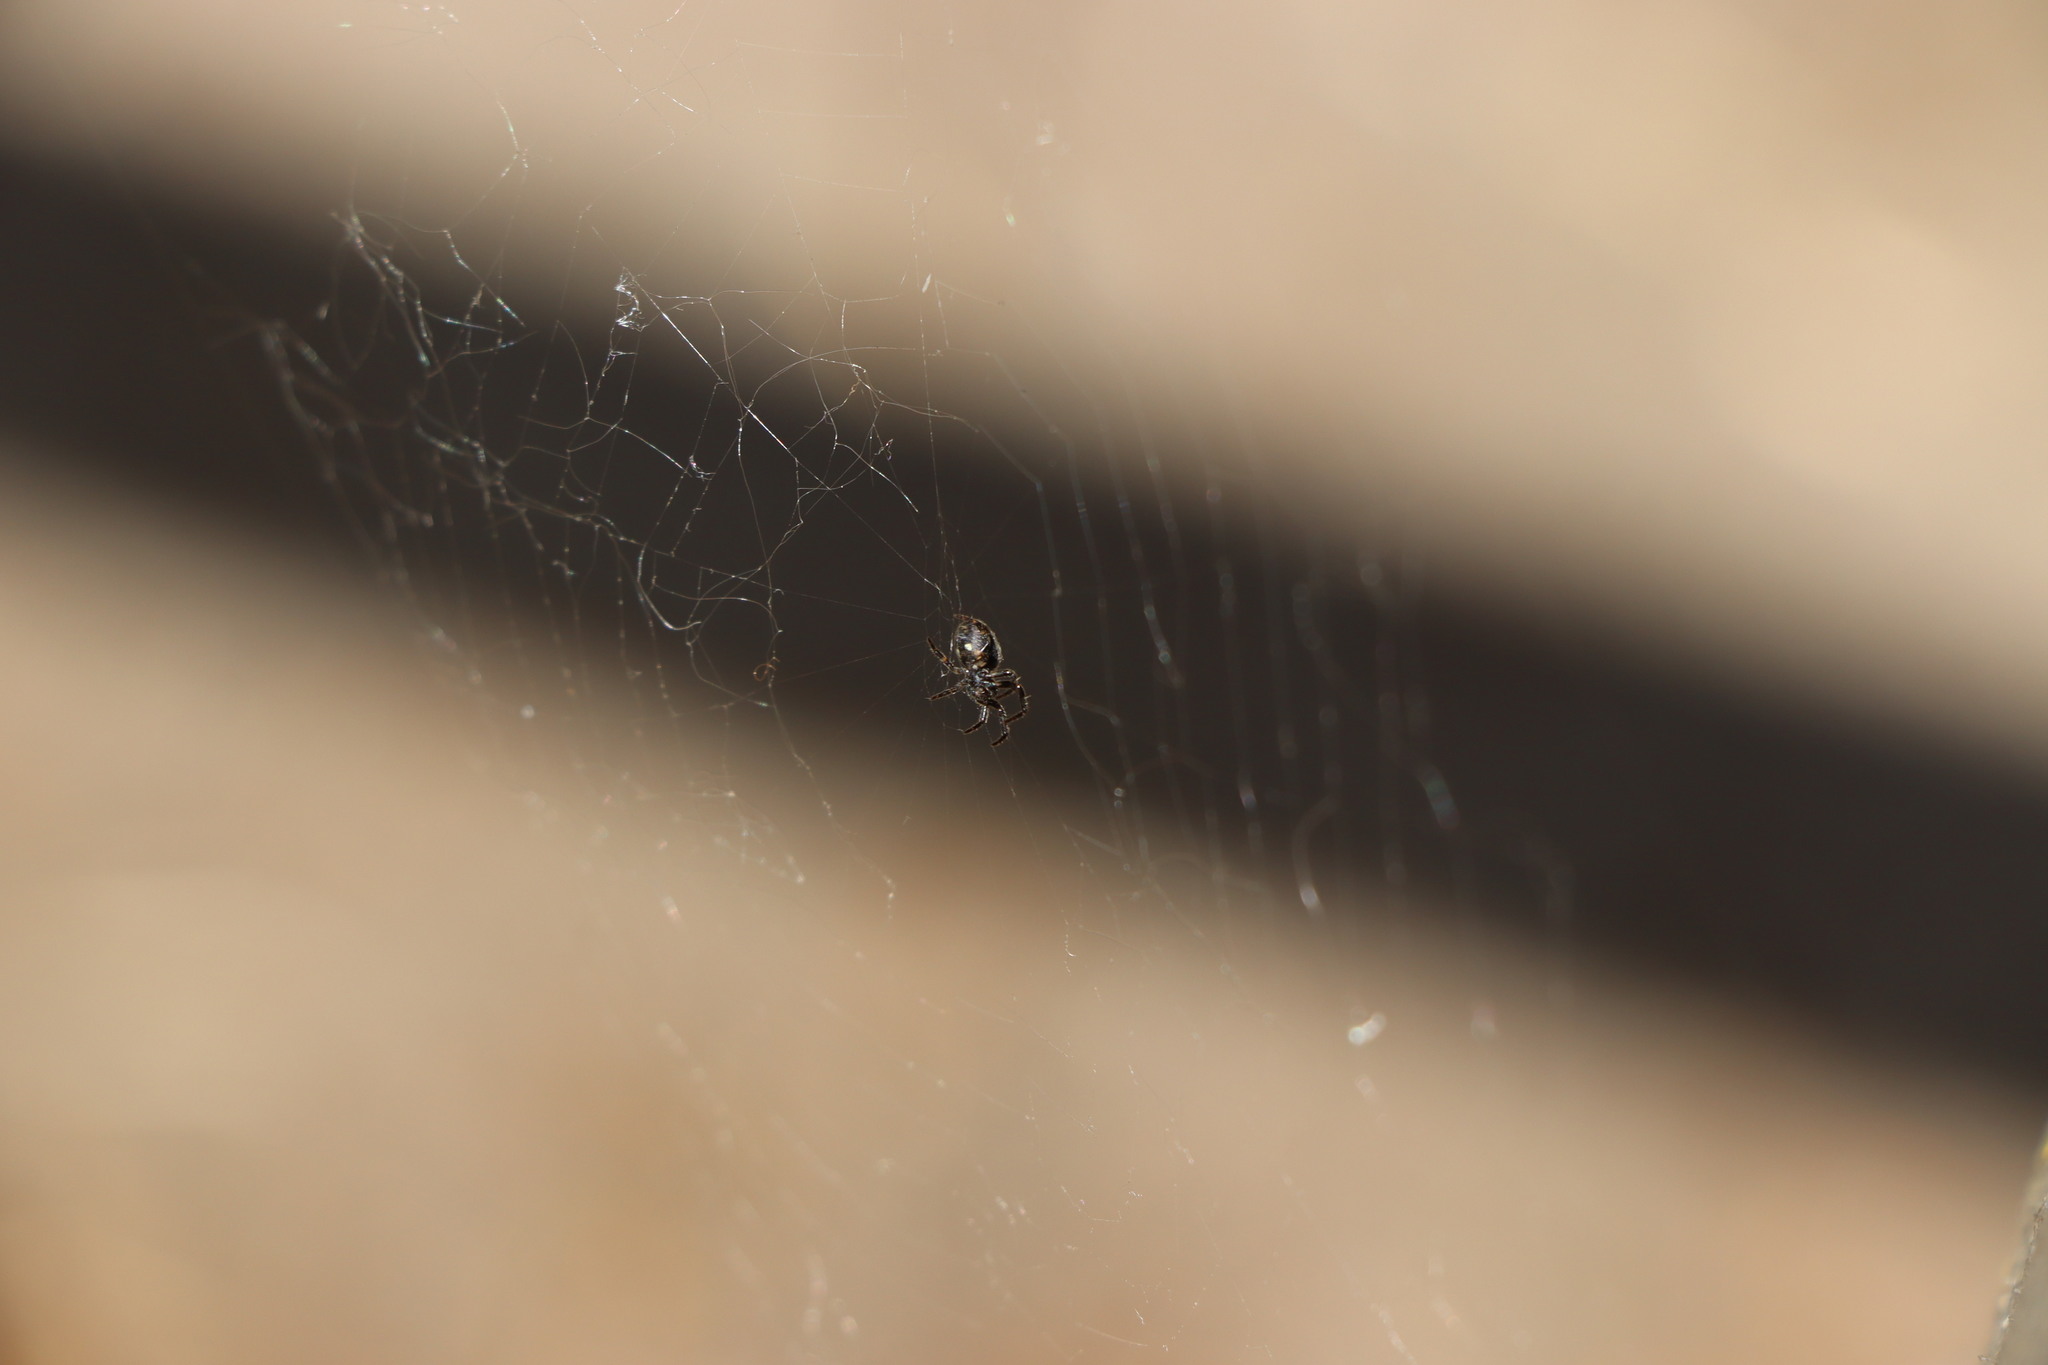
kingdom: Animalia
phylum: Arthropoda
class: Arachnida
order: Araneae
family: Araneidae
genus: Nuctenea
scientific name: Nuctenea umbratica
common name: Toad spider
